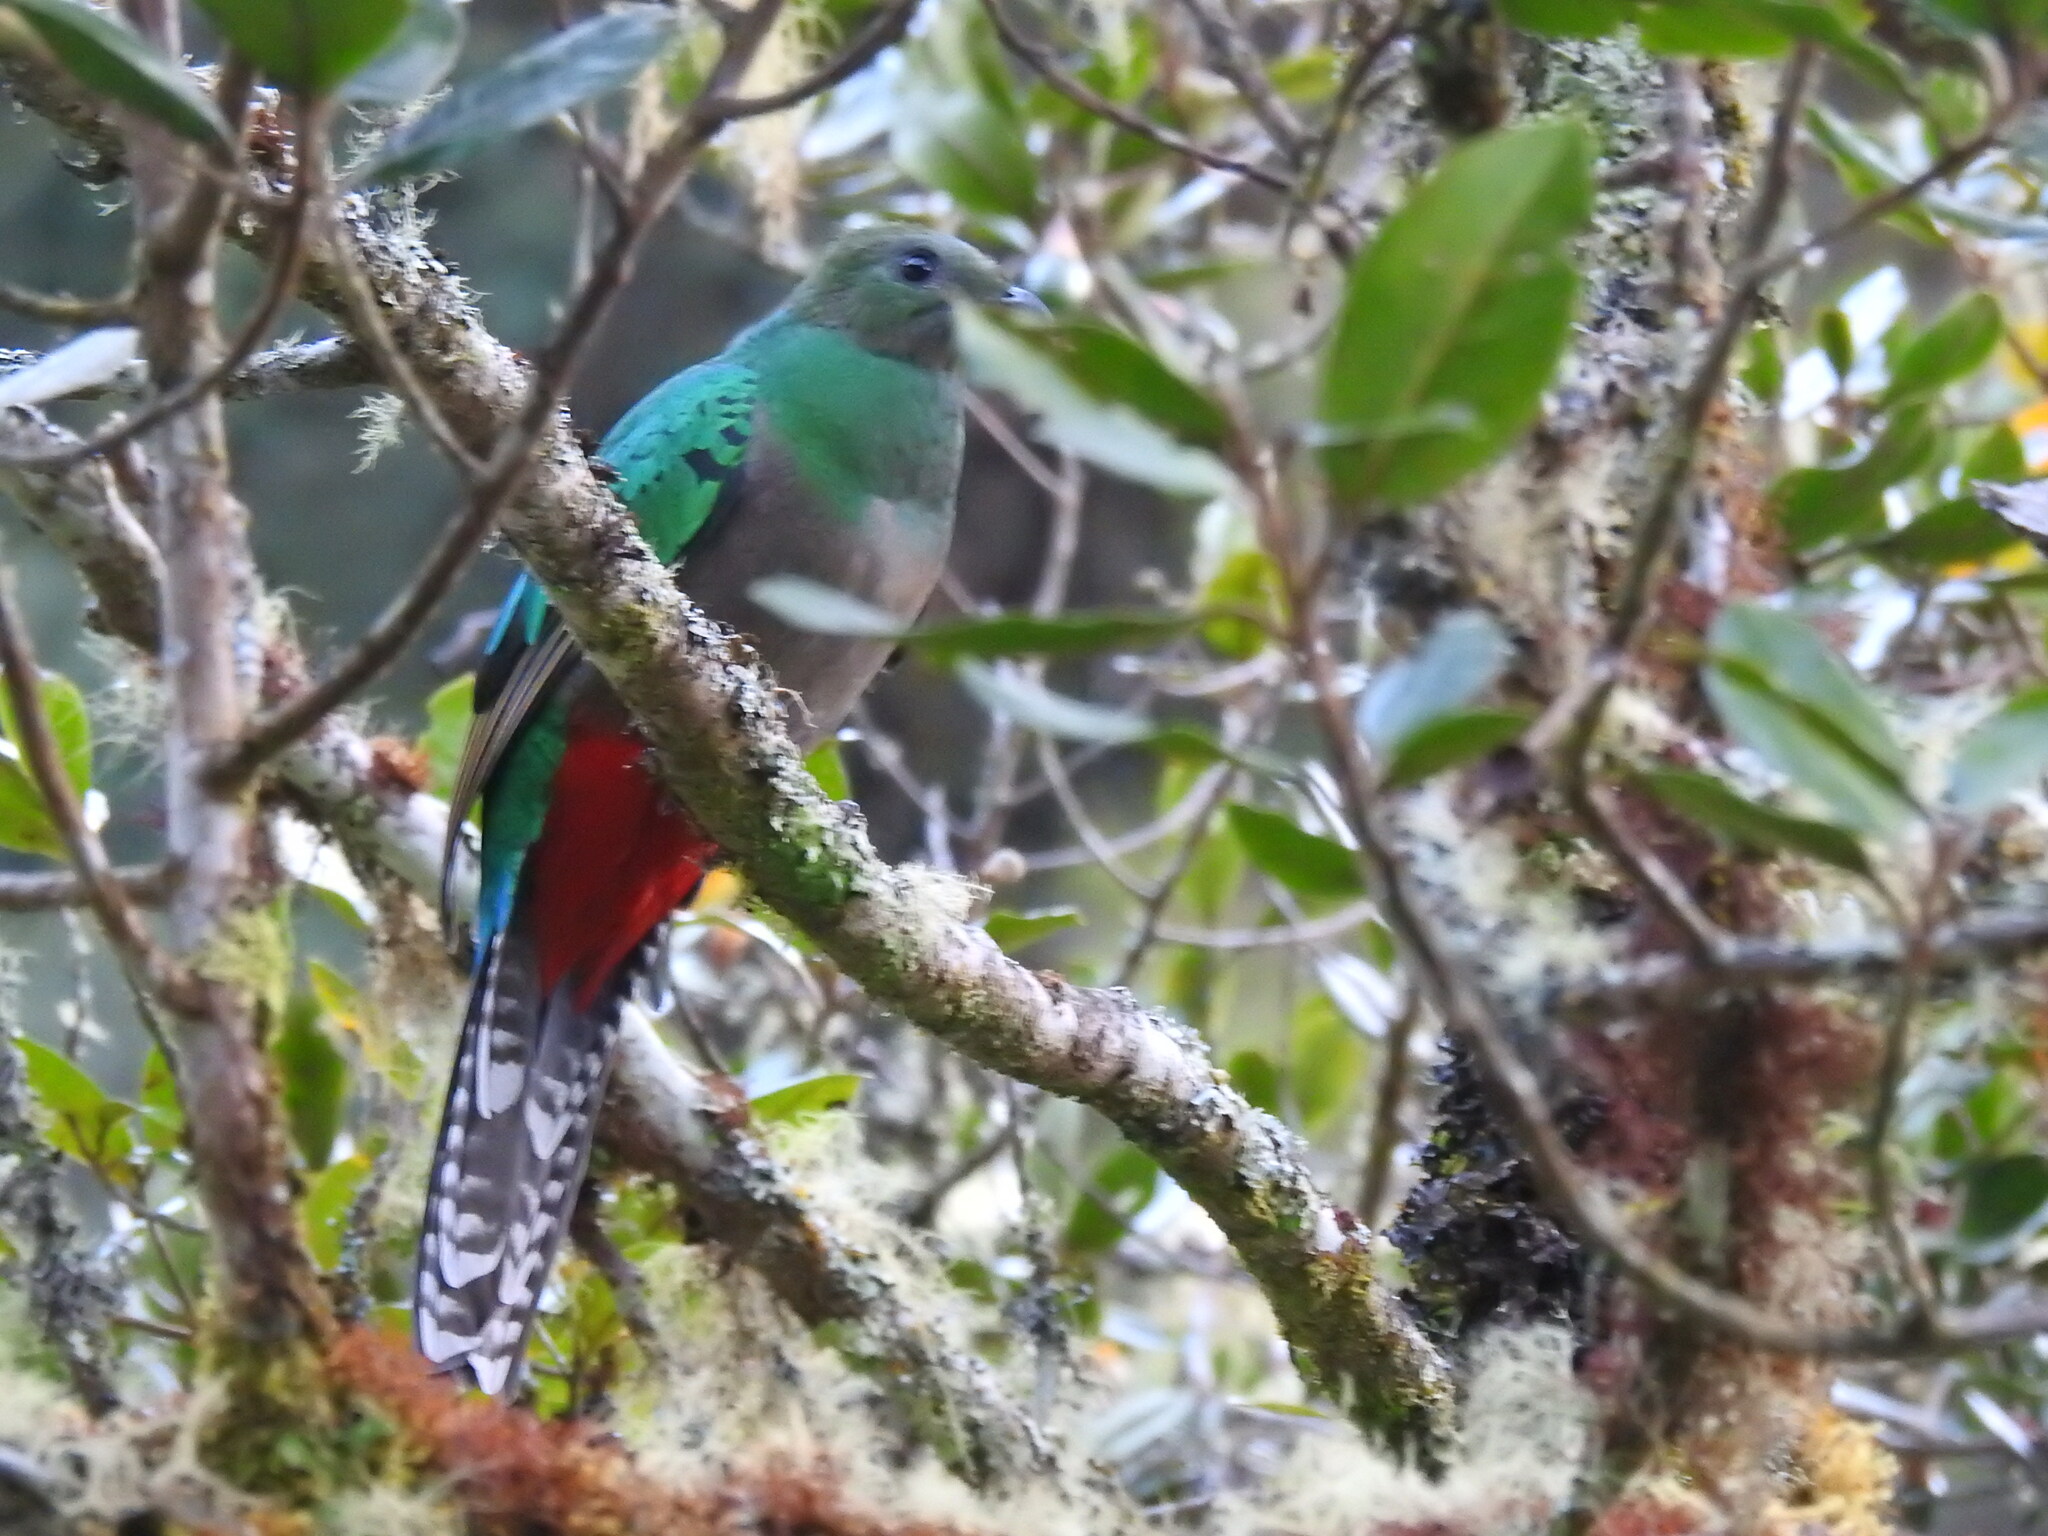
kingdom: Animalia
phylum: Chordata
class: Aves
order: Trogoniformes
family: Trogonidae
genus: Pharomachrus
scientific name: Pharomachrus mocinno
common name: Resplendent quetzal
